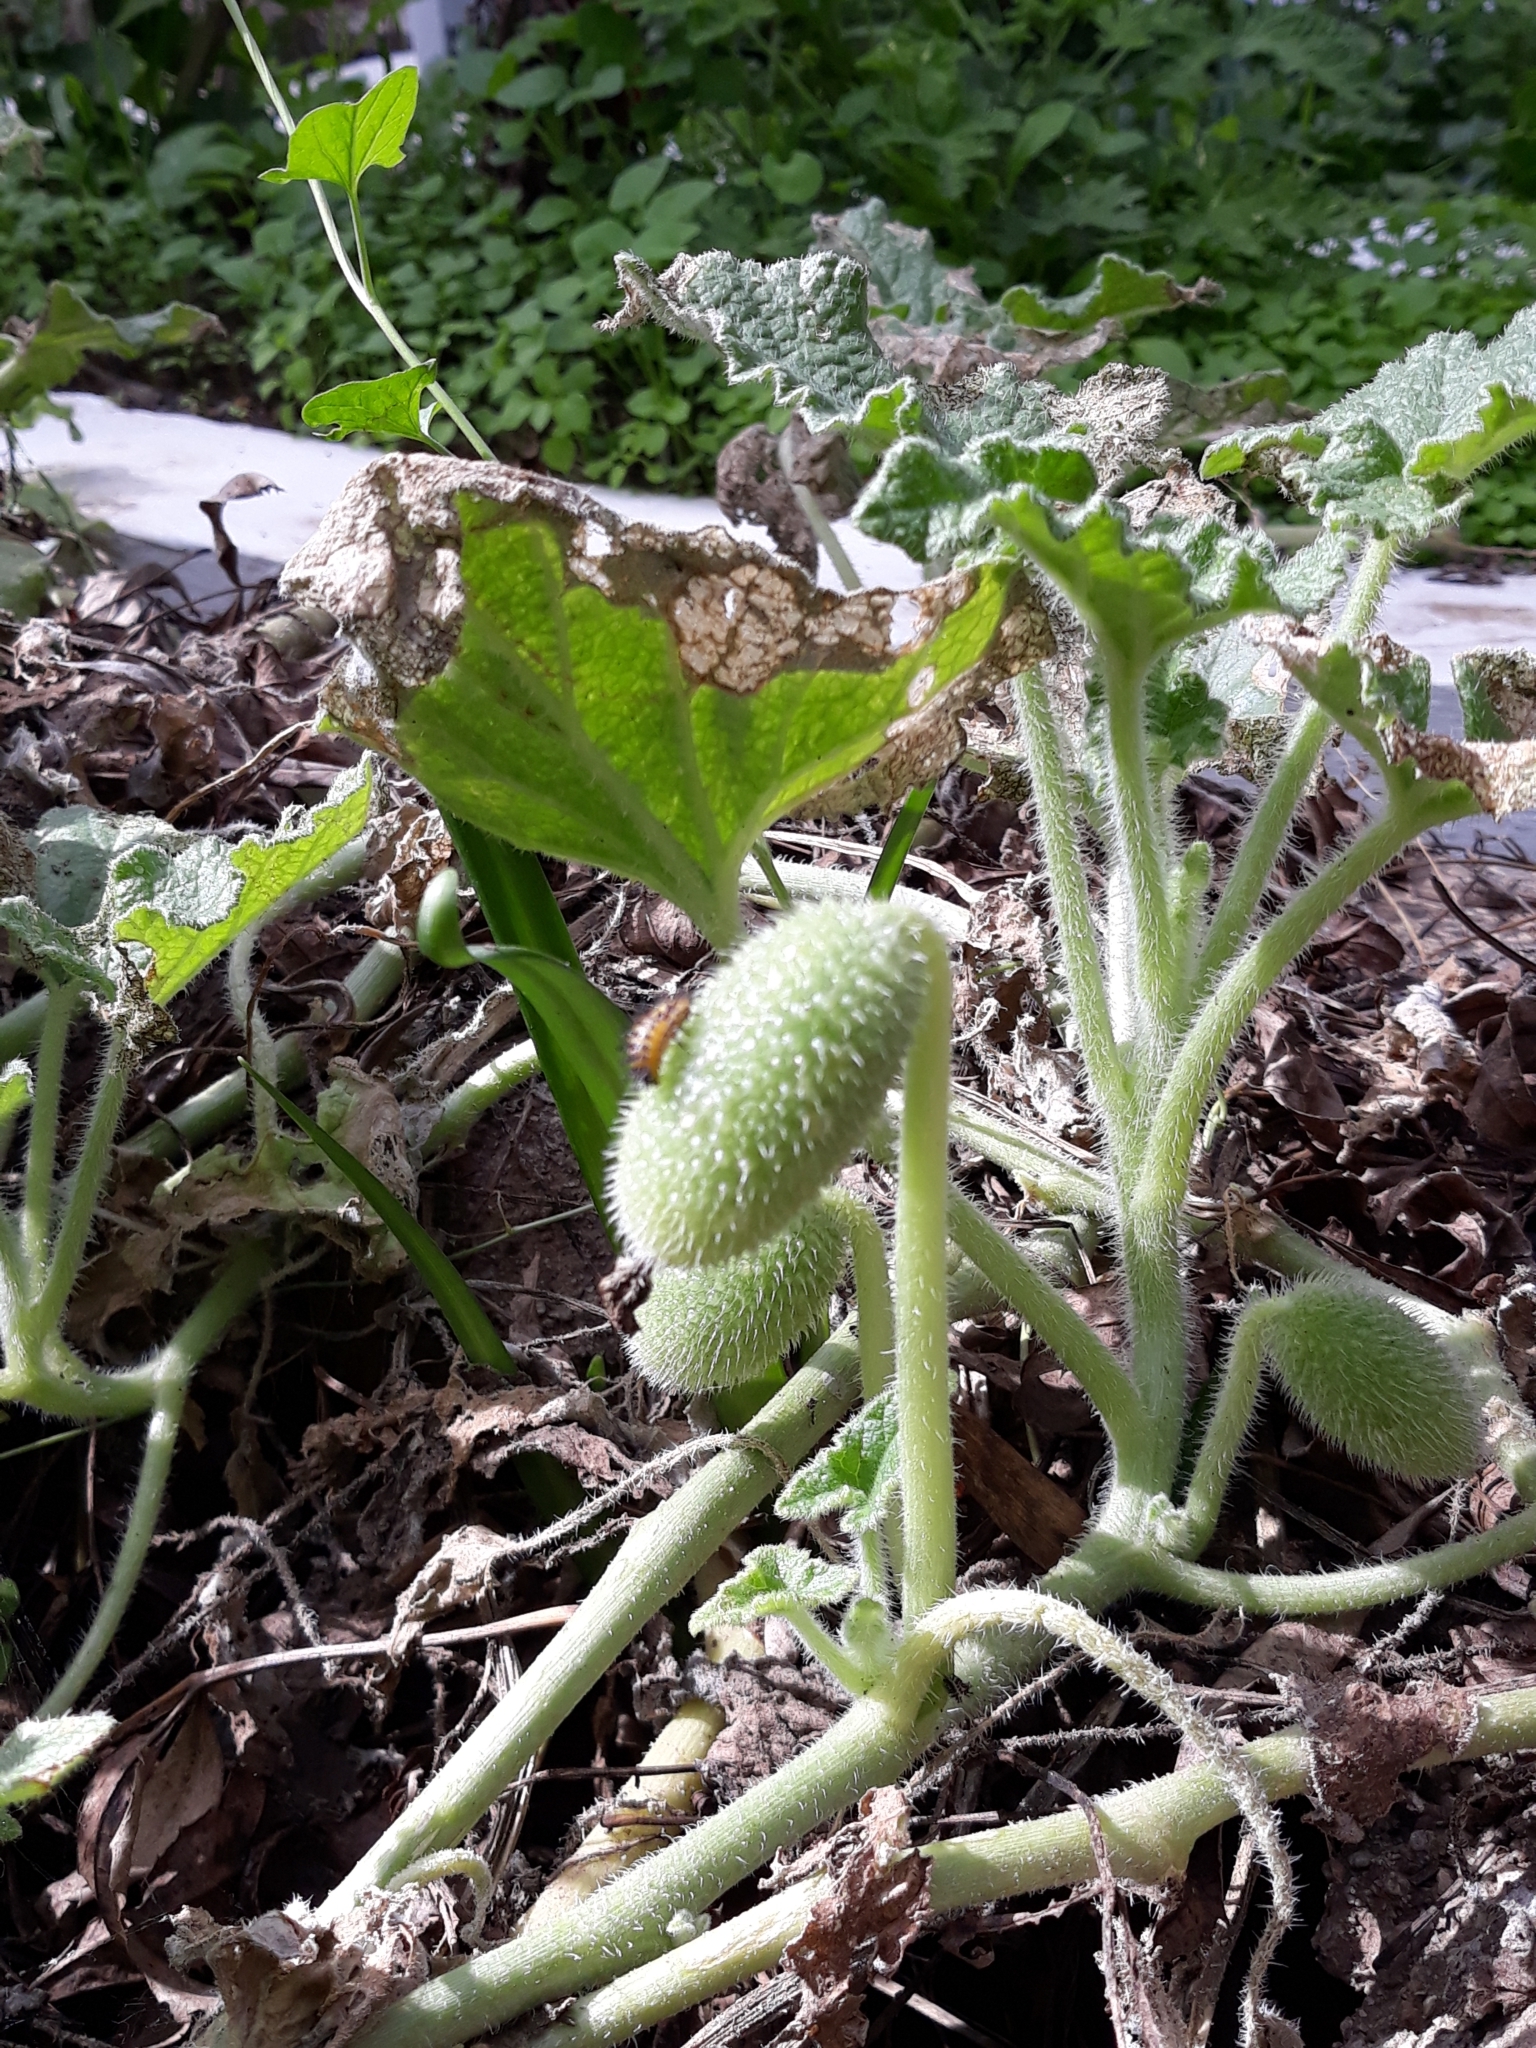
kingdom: Plantae
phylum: Tracheophyta
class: Magnoliopsida
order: Cucurbitales
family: Cucurbitaceae
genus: Ecballium
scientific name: Ecballium elaterium
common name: Squirting cucumber
